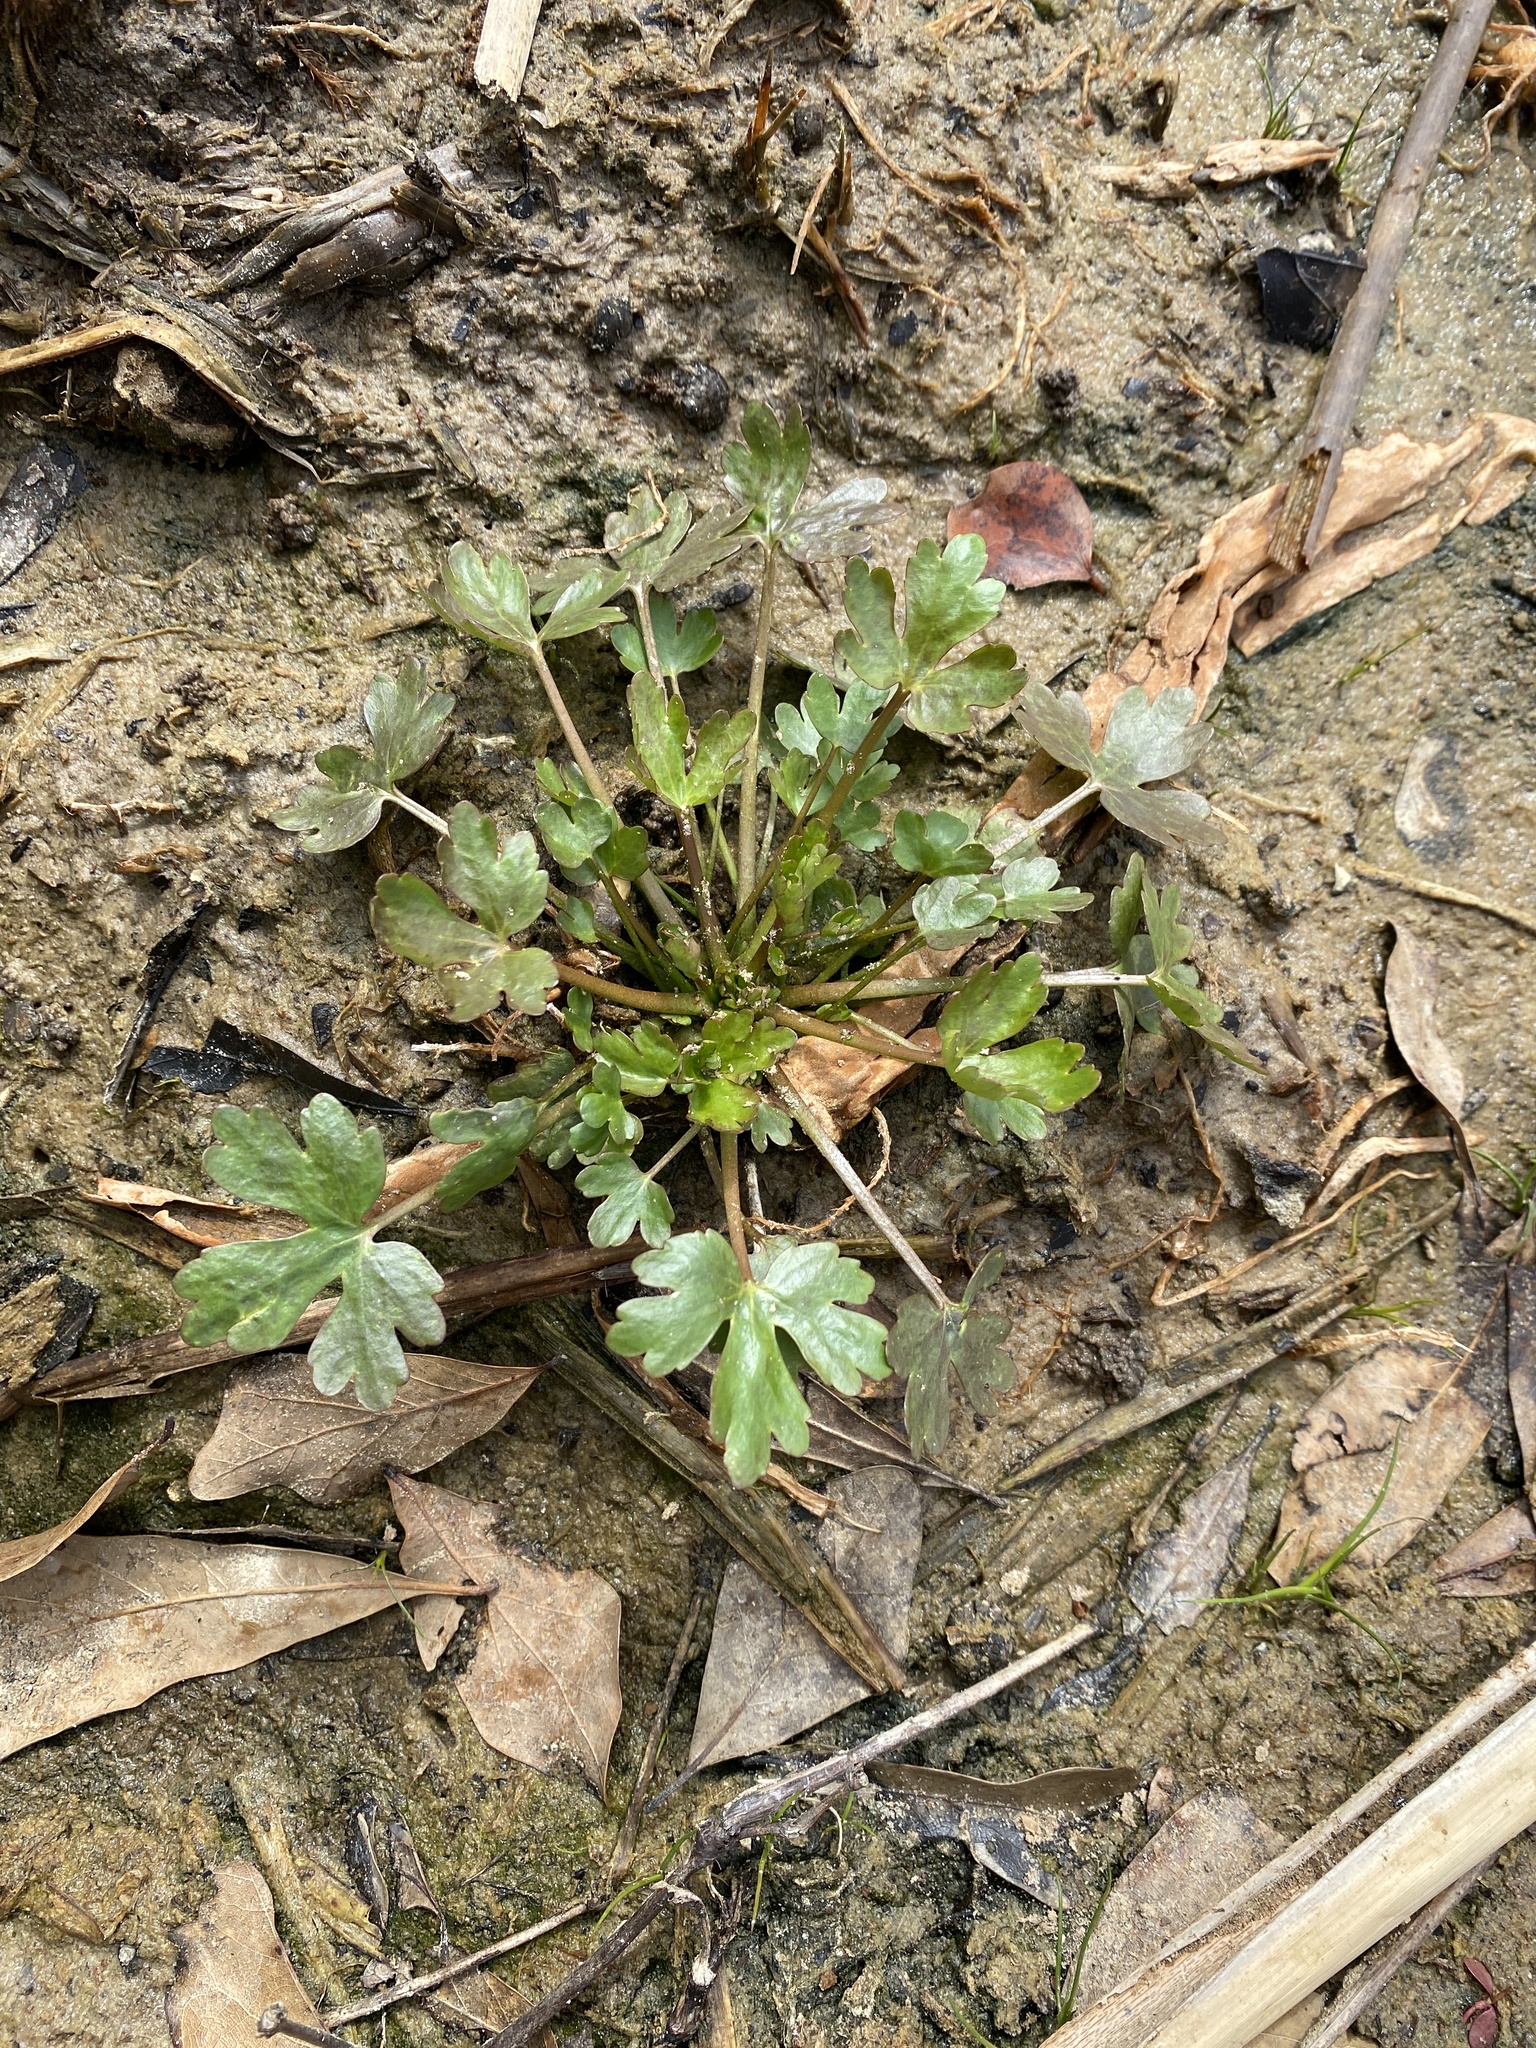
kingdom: Plantae
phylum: Tracheophyta
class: Magnoliopsida
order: Ranunculales
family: Ranunculaceae
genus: Ranunculus
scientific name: Ranunculus sceleratus
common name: Celery-leaved buttercup
